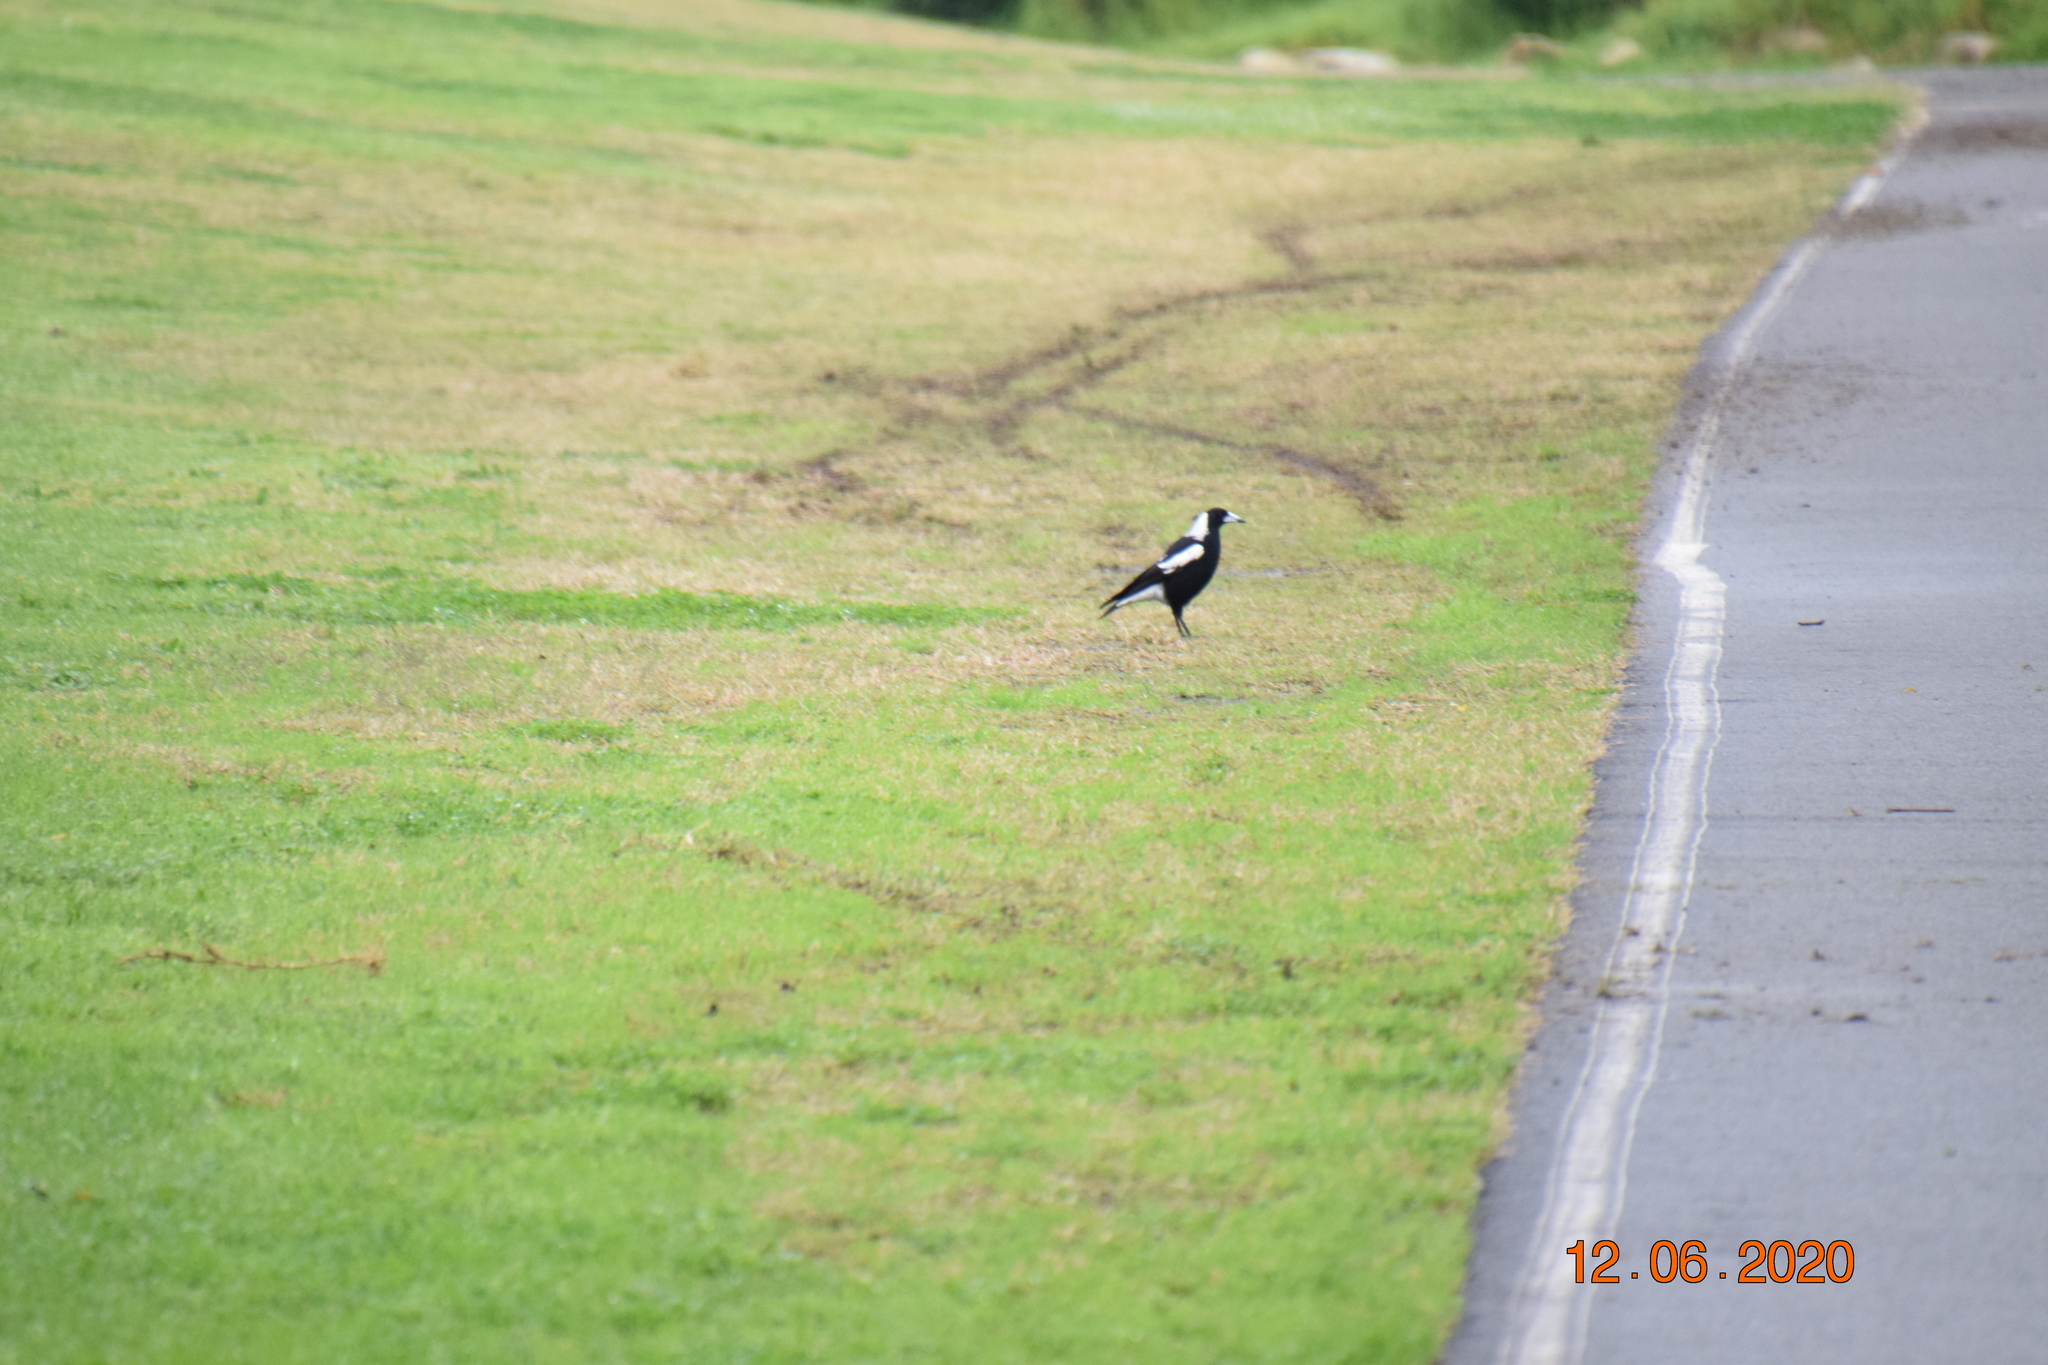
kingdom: Animalia
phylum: Chordata
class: Aves
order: Passeriformes
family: Cracticidae
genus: Gymnorhina
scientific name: Gymnorhina tibicen
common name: Australian magpie
